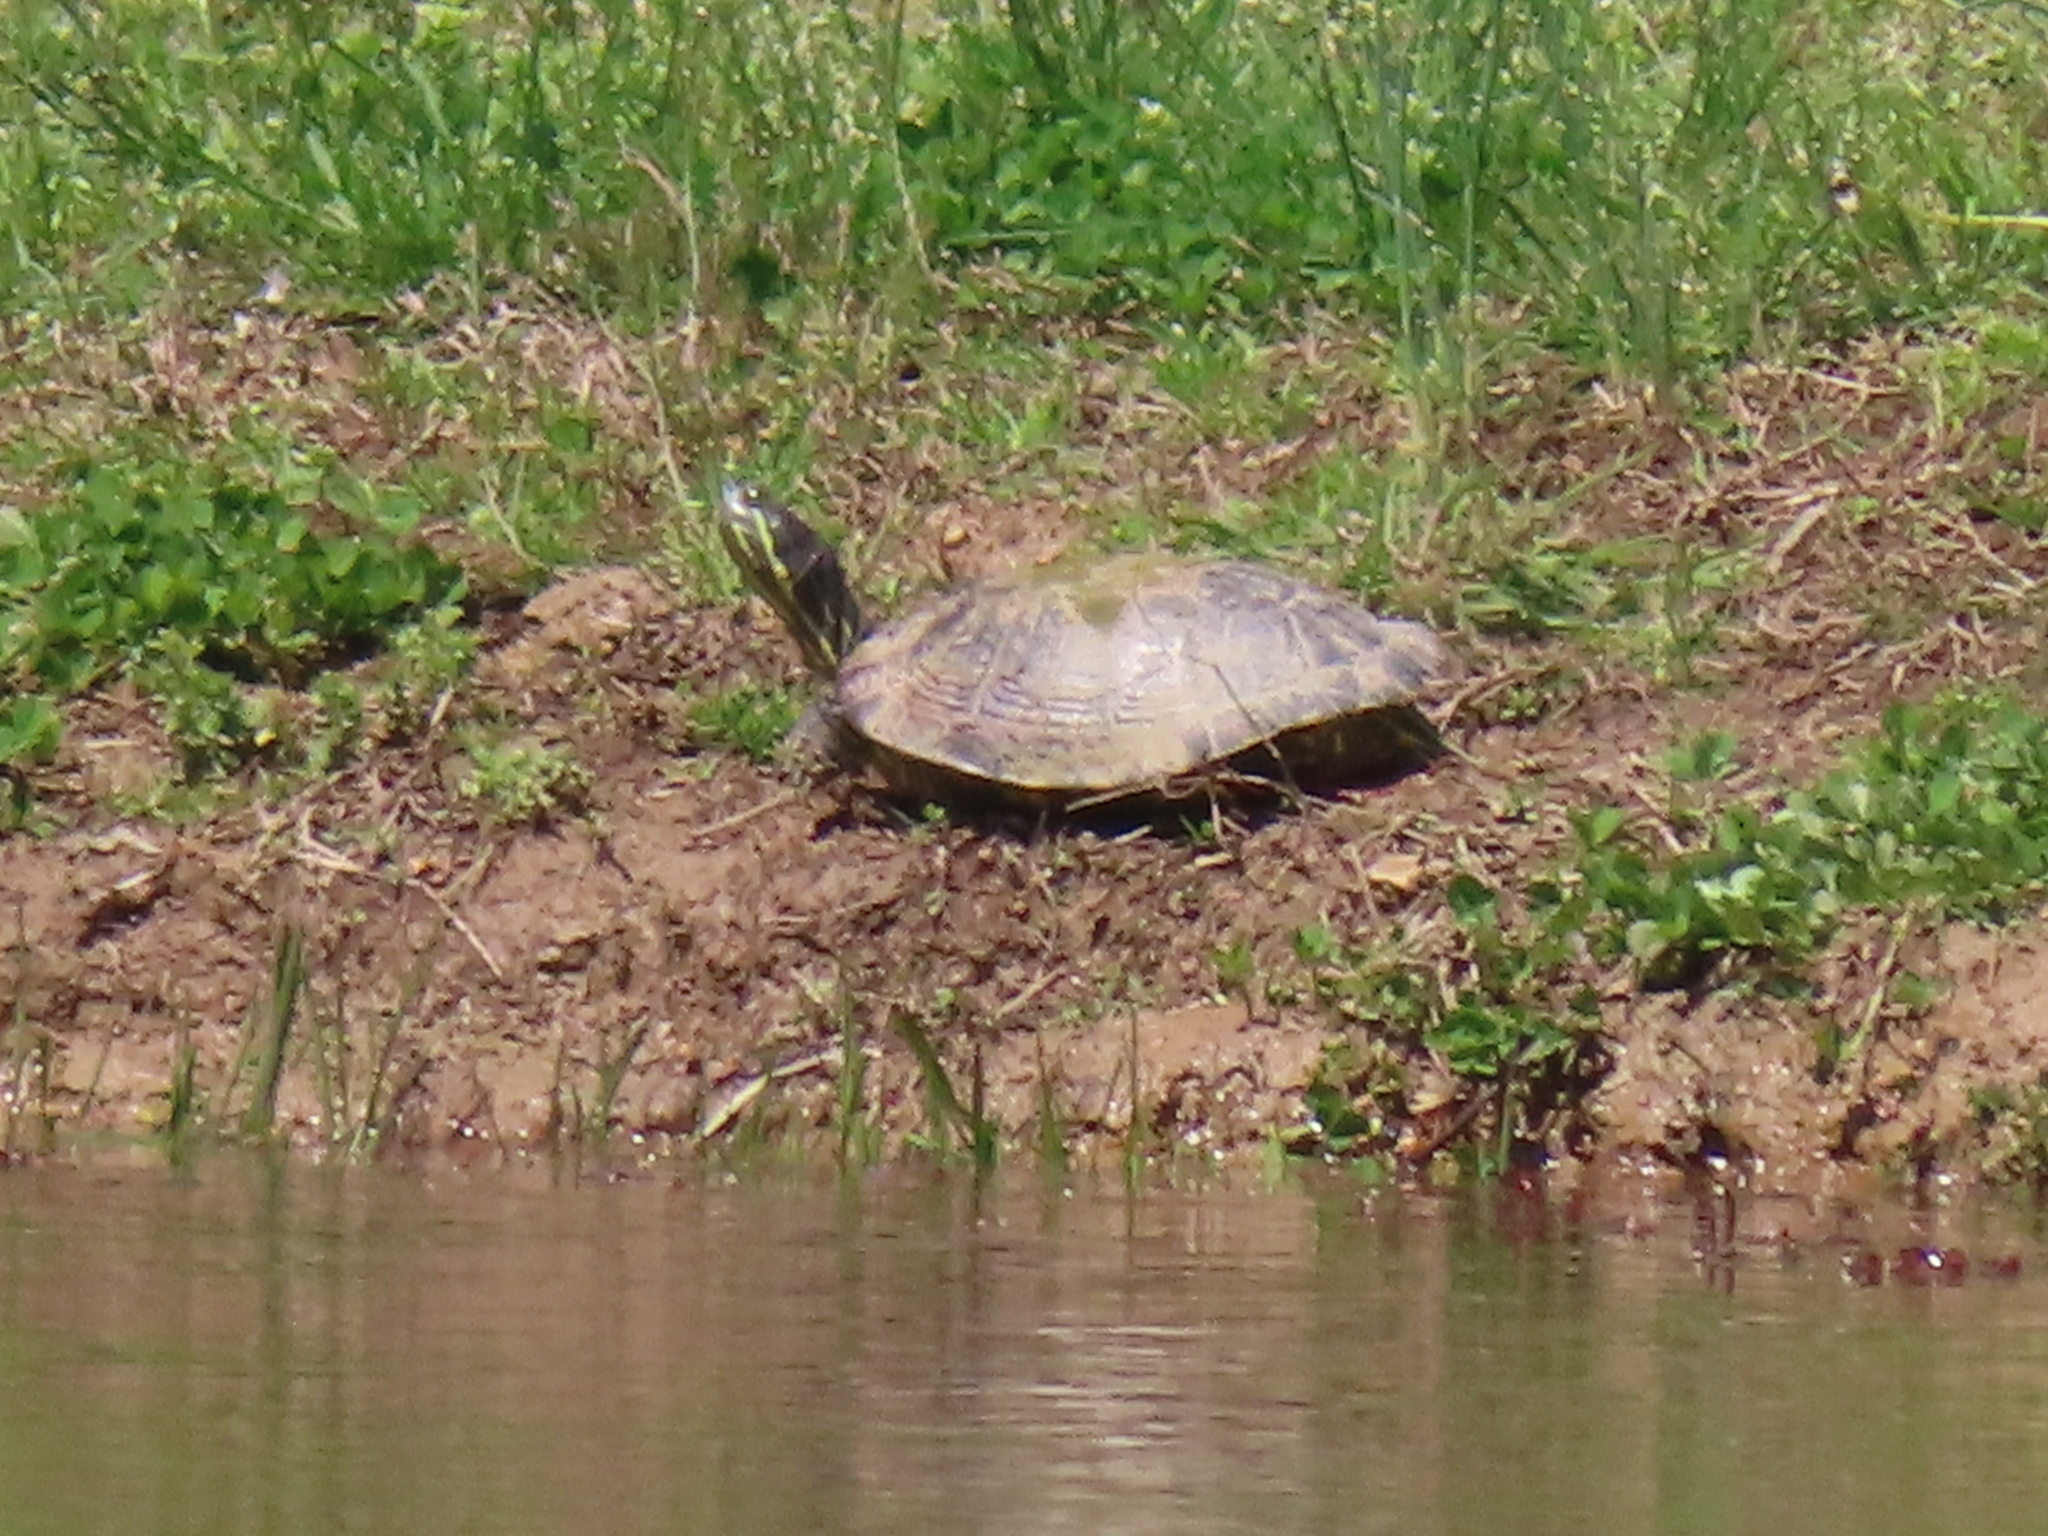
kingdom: Animalia
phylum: Chordata
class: Testudines
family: Emydidae
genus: Trachemys
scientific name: Trachemys scripta
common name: Slider
